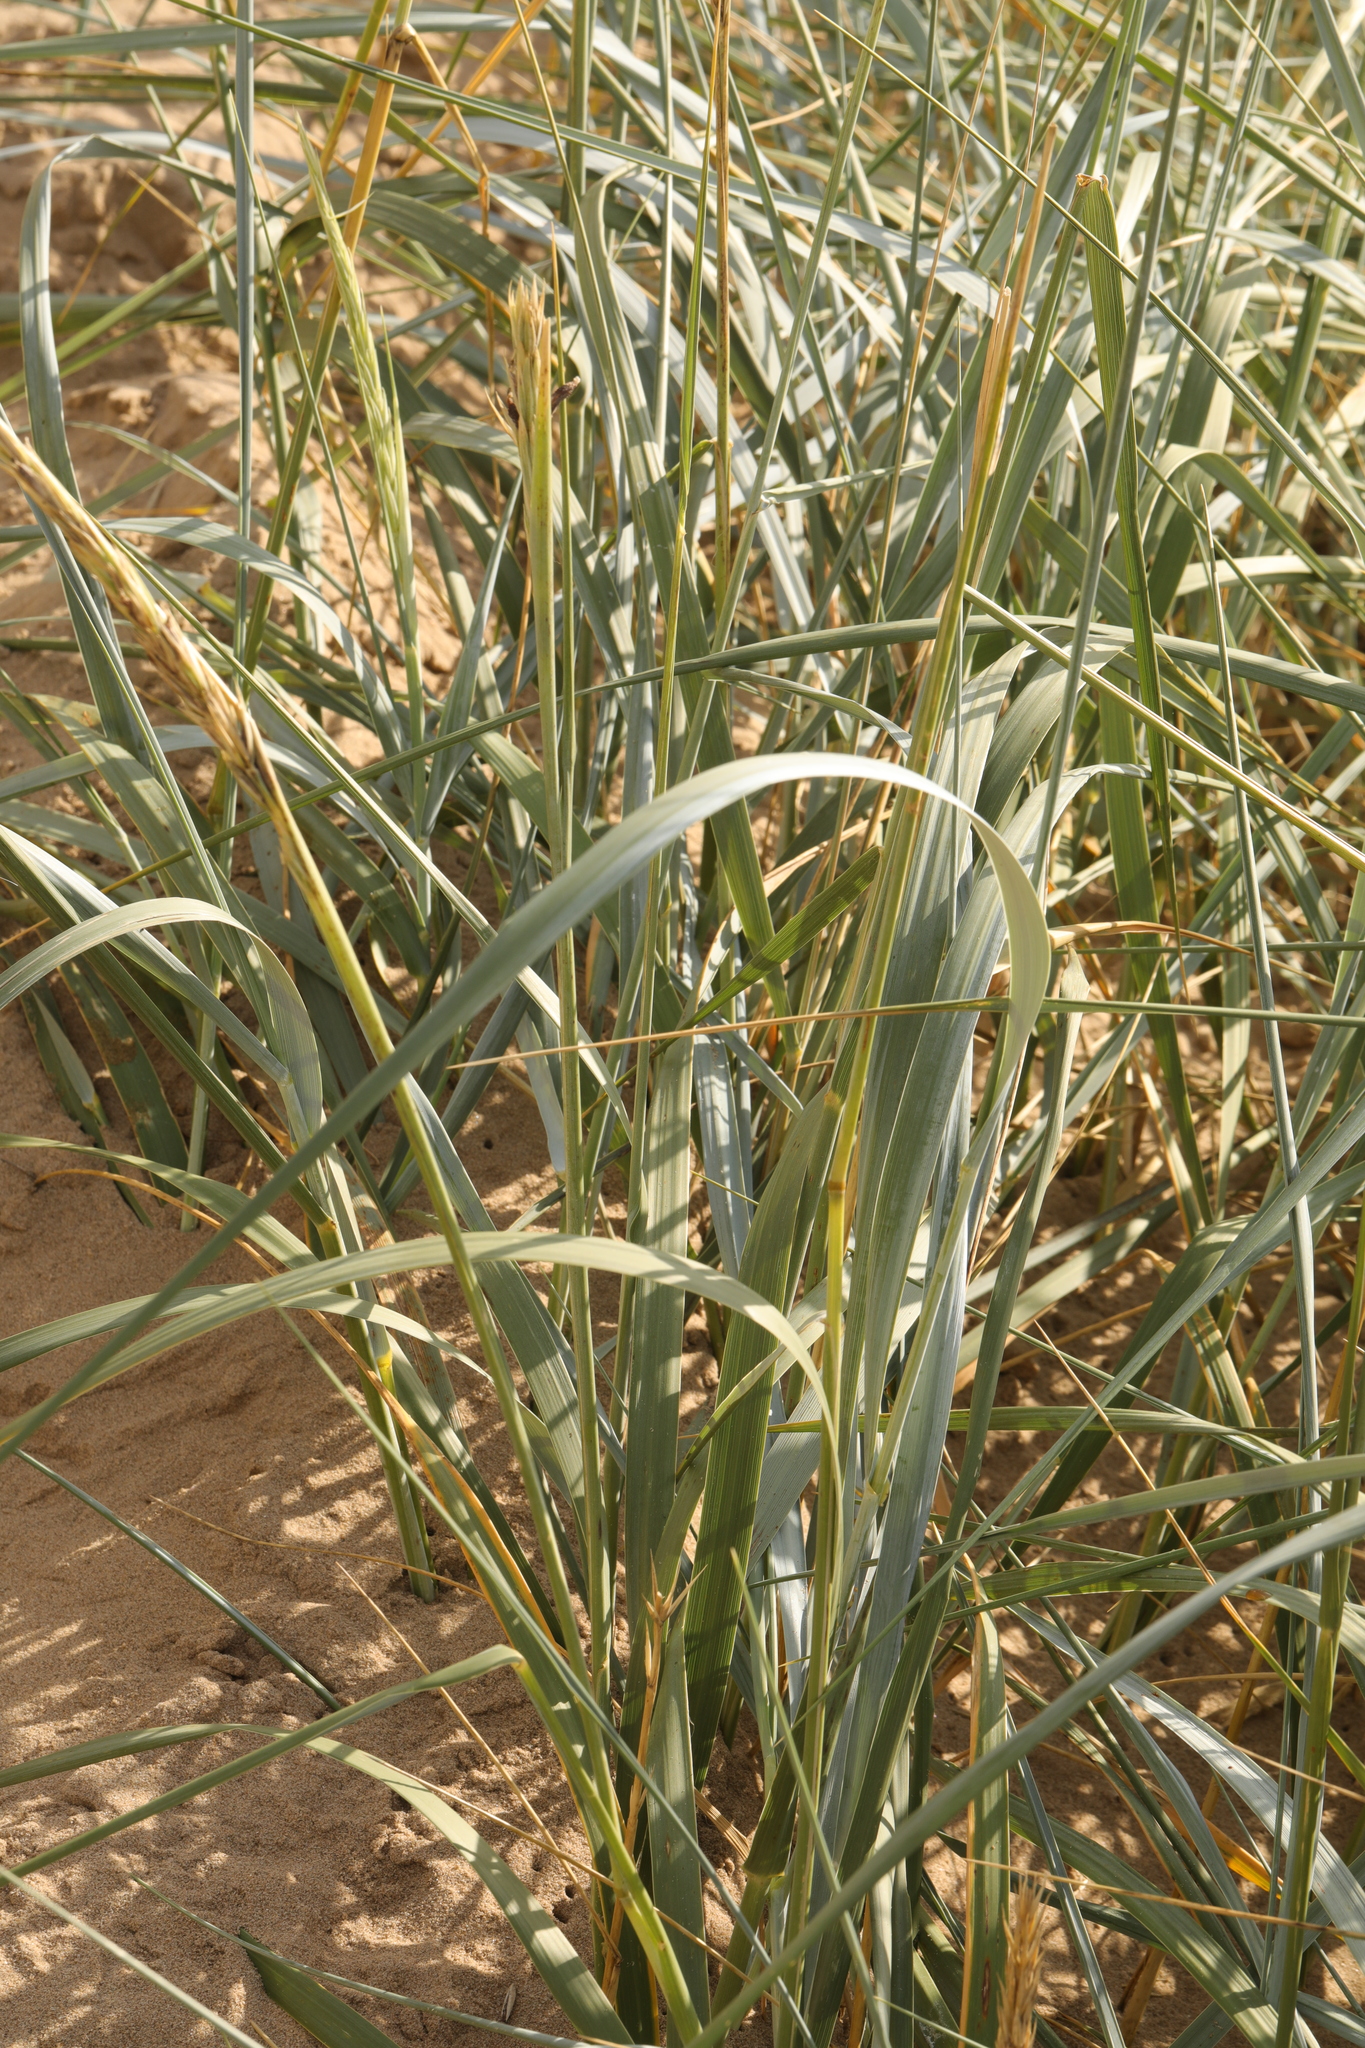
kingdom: Plantae
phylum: Tracheophyta
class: Liliopsida
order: Poales
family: Poaceae
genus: Leymus
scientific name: Leymus arenarius
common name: Lyme-grass
